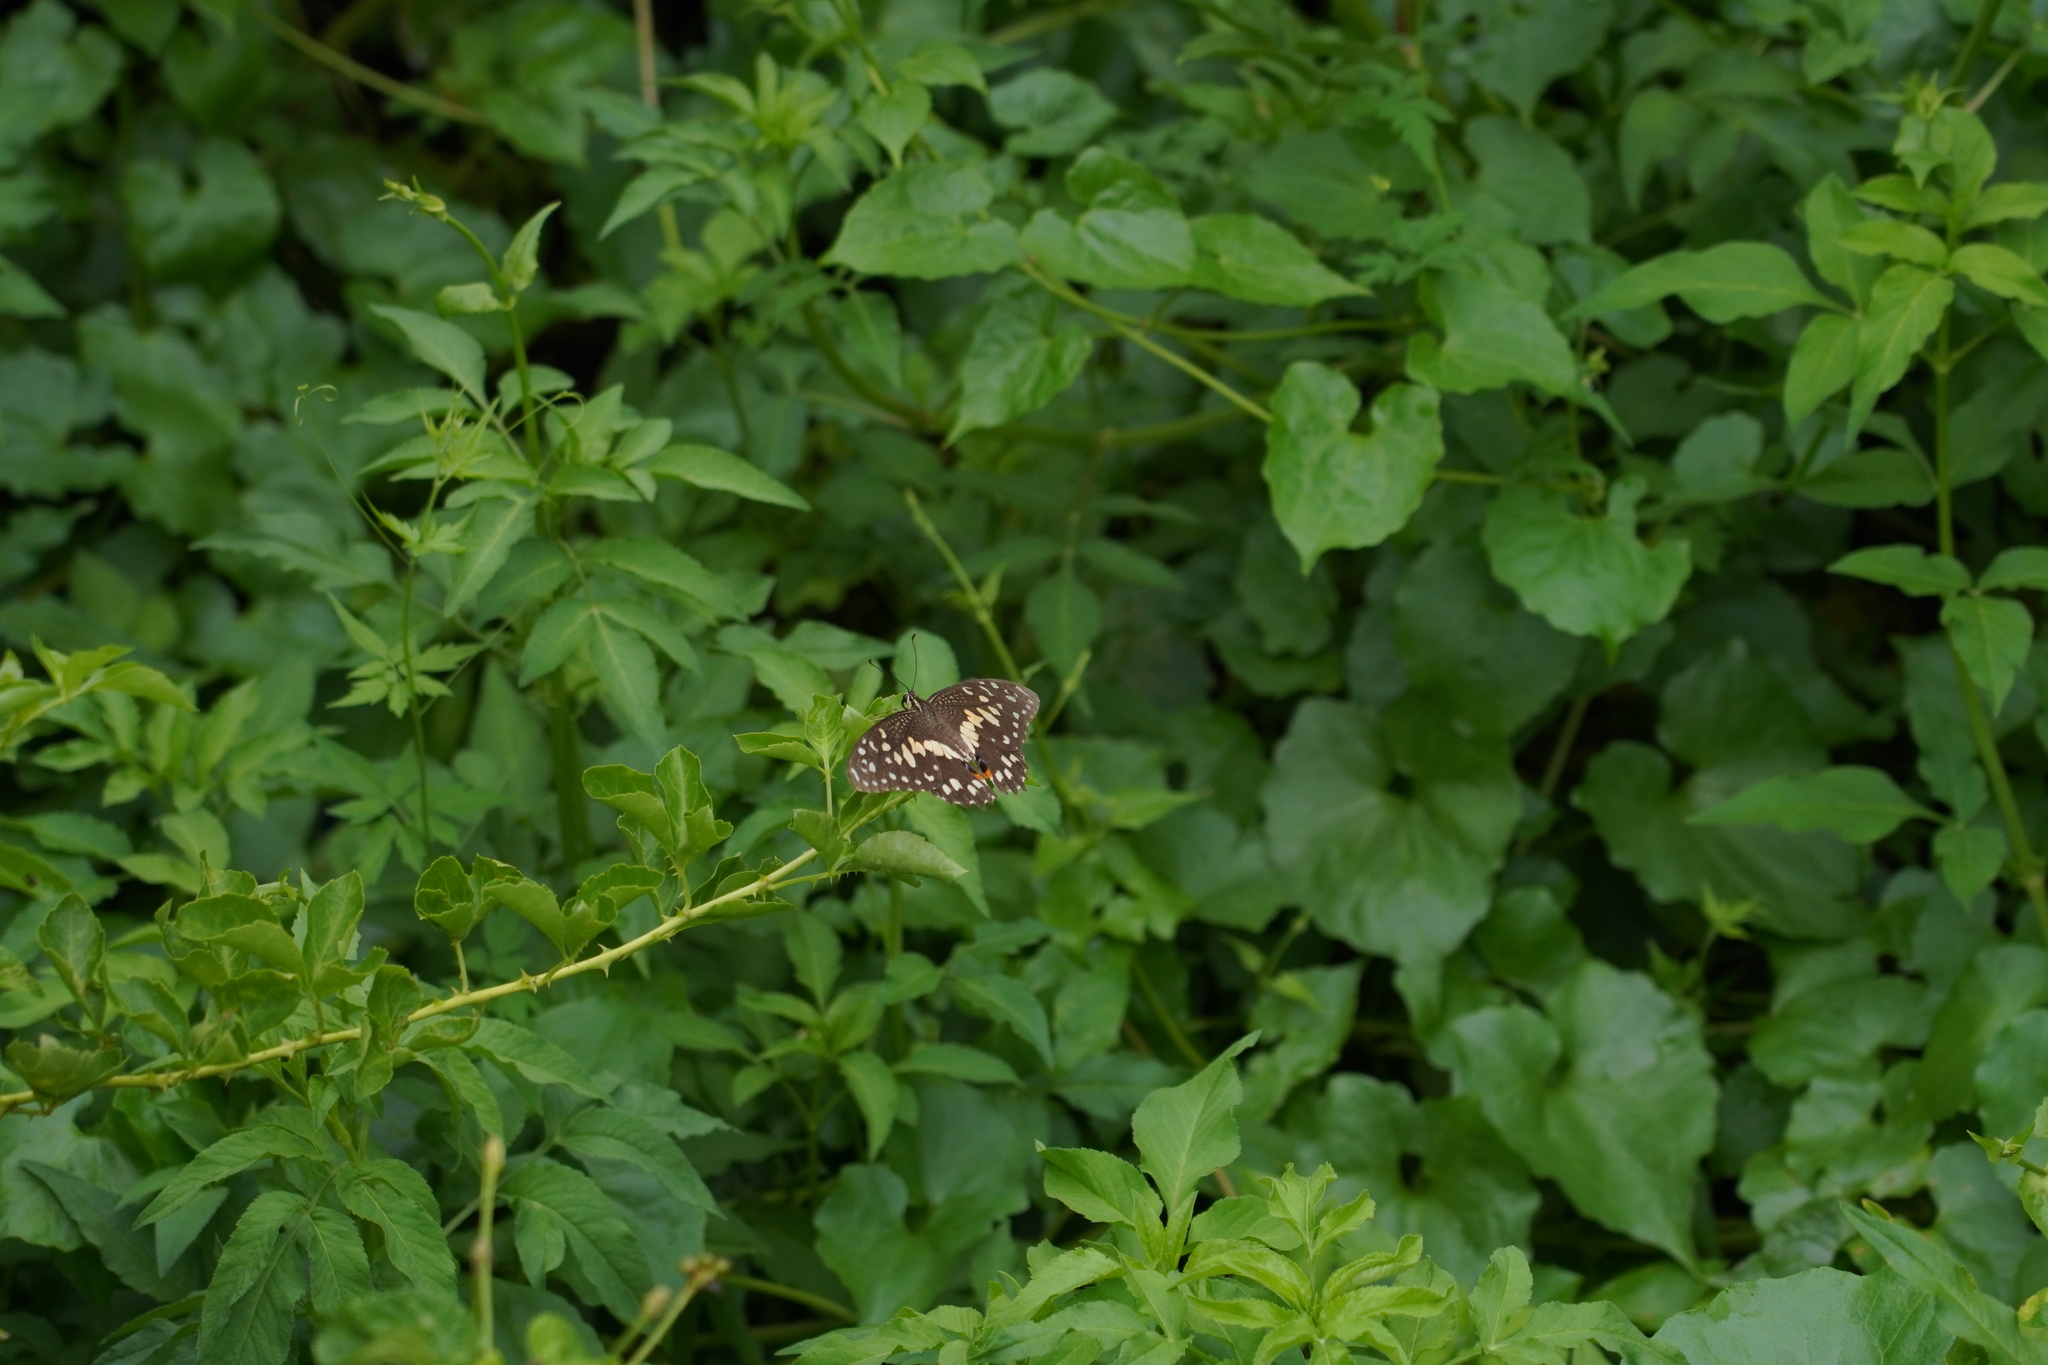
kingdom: Animalia
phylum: Arthropoda
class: Insecta
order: Lepidoptera
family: Papilionidae
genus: Papilio
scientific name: Papilio demoleus
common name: Lime butterfly
